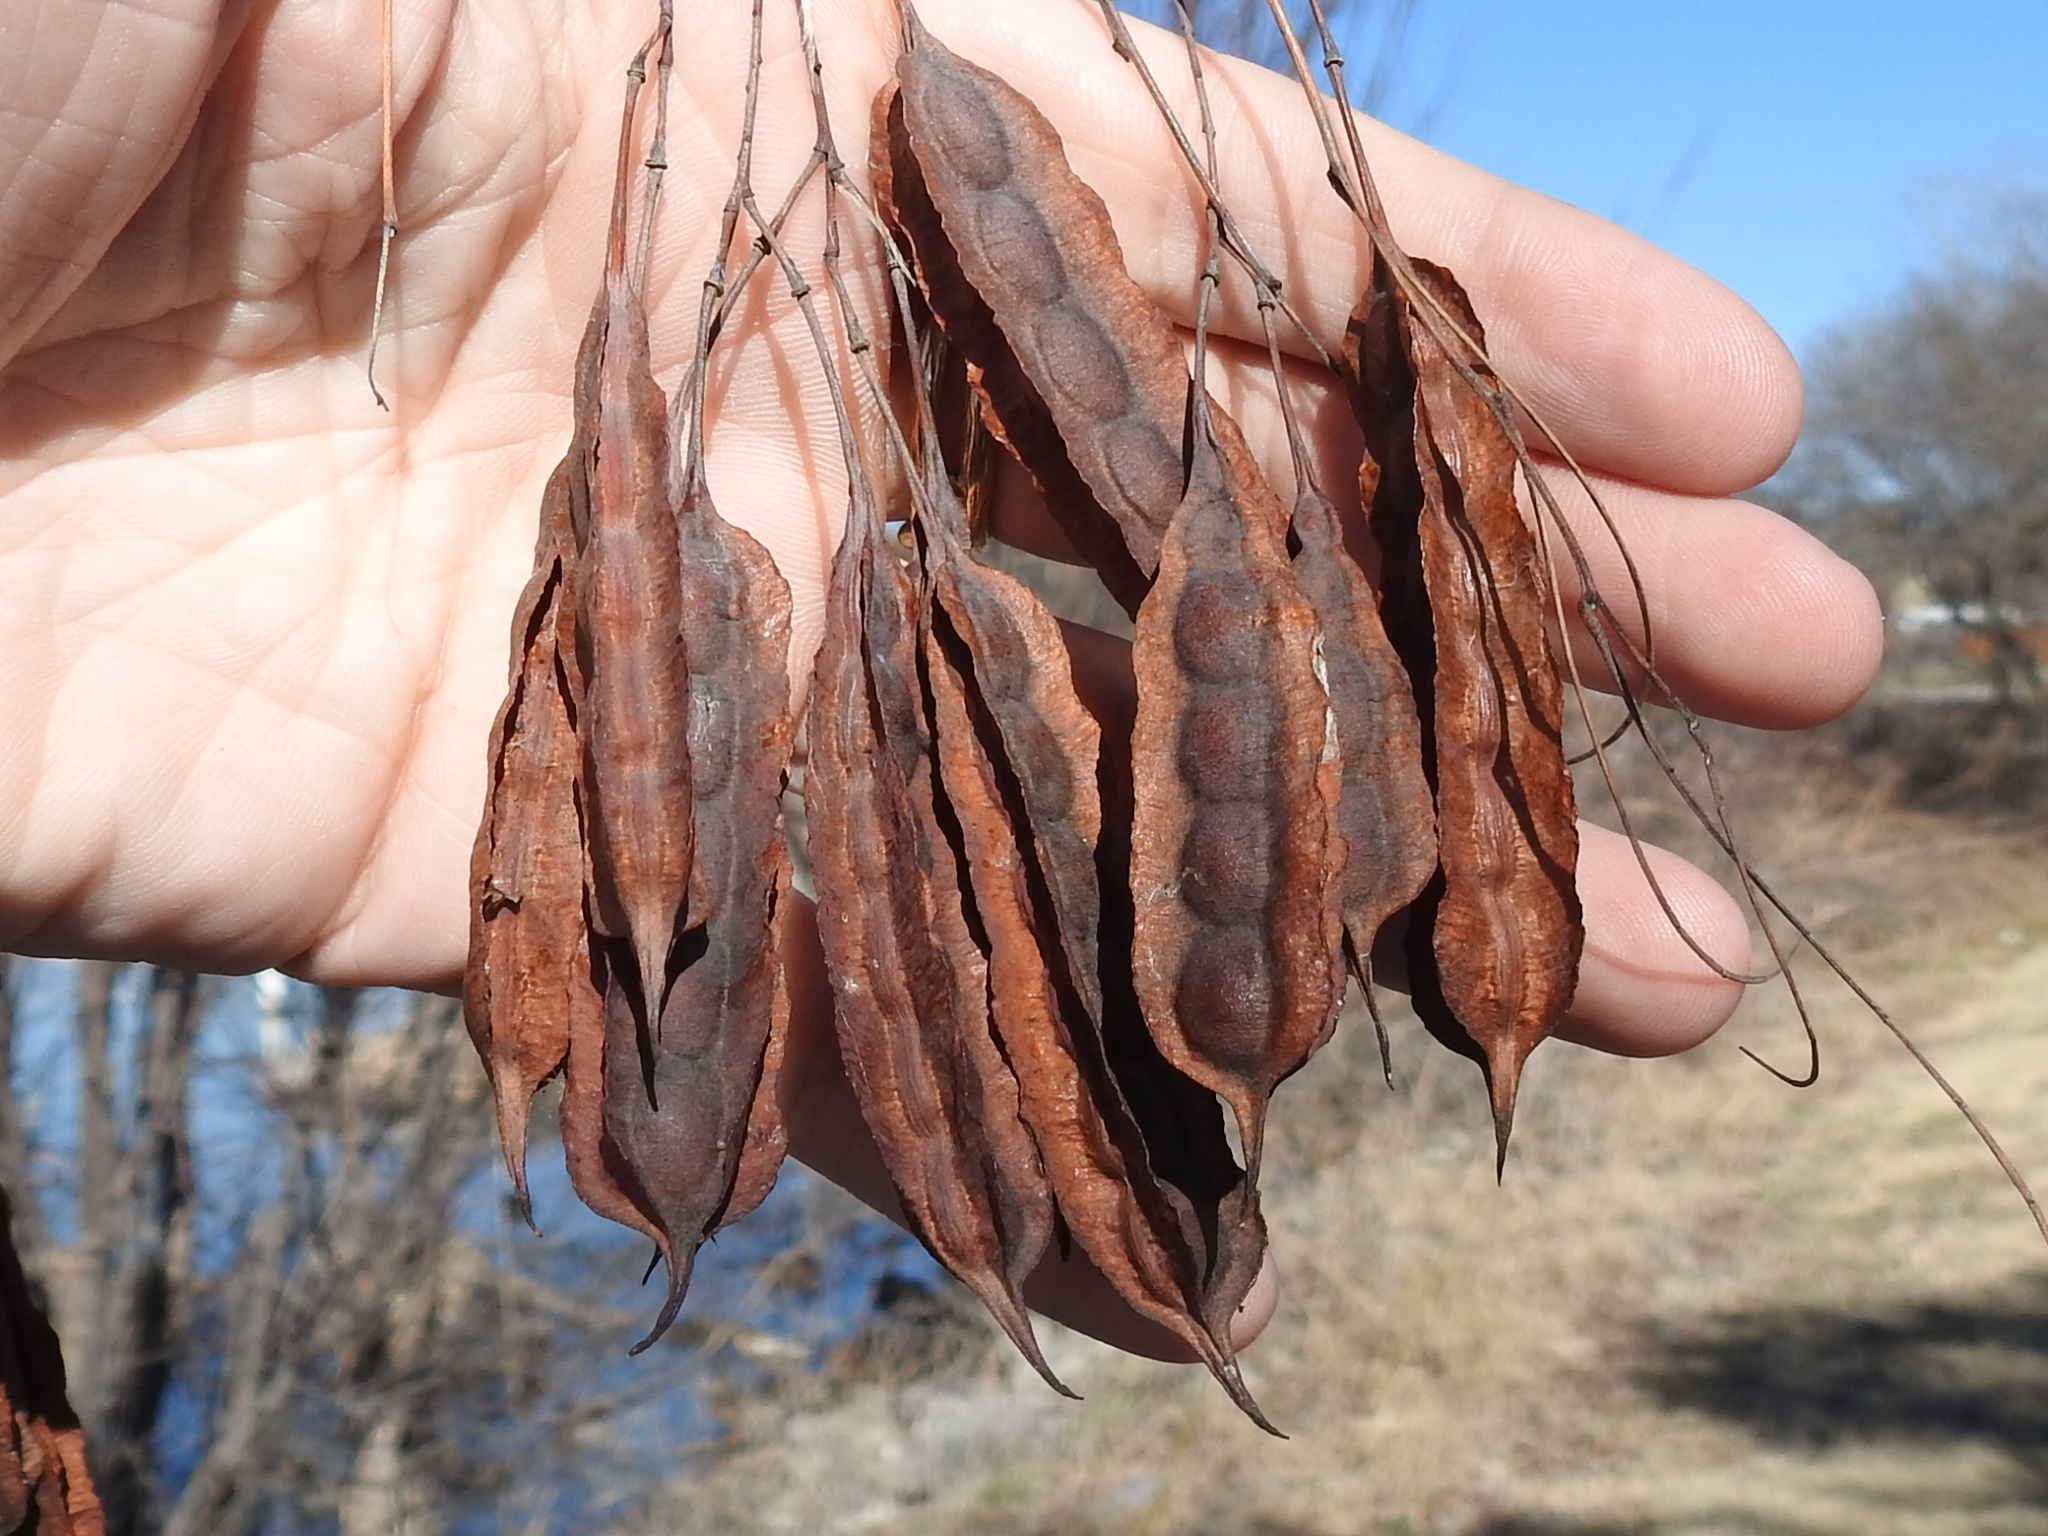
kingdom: Plantae
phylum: Tracheophyta
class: Magnoliopsida
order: Fabales
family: Fabaceae
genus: Sesbania
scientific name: Sesbania drummondii
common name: Poison-bean
